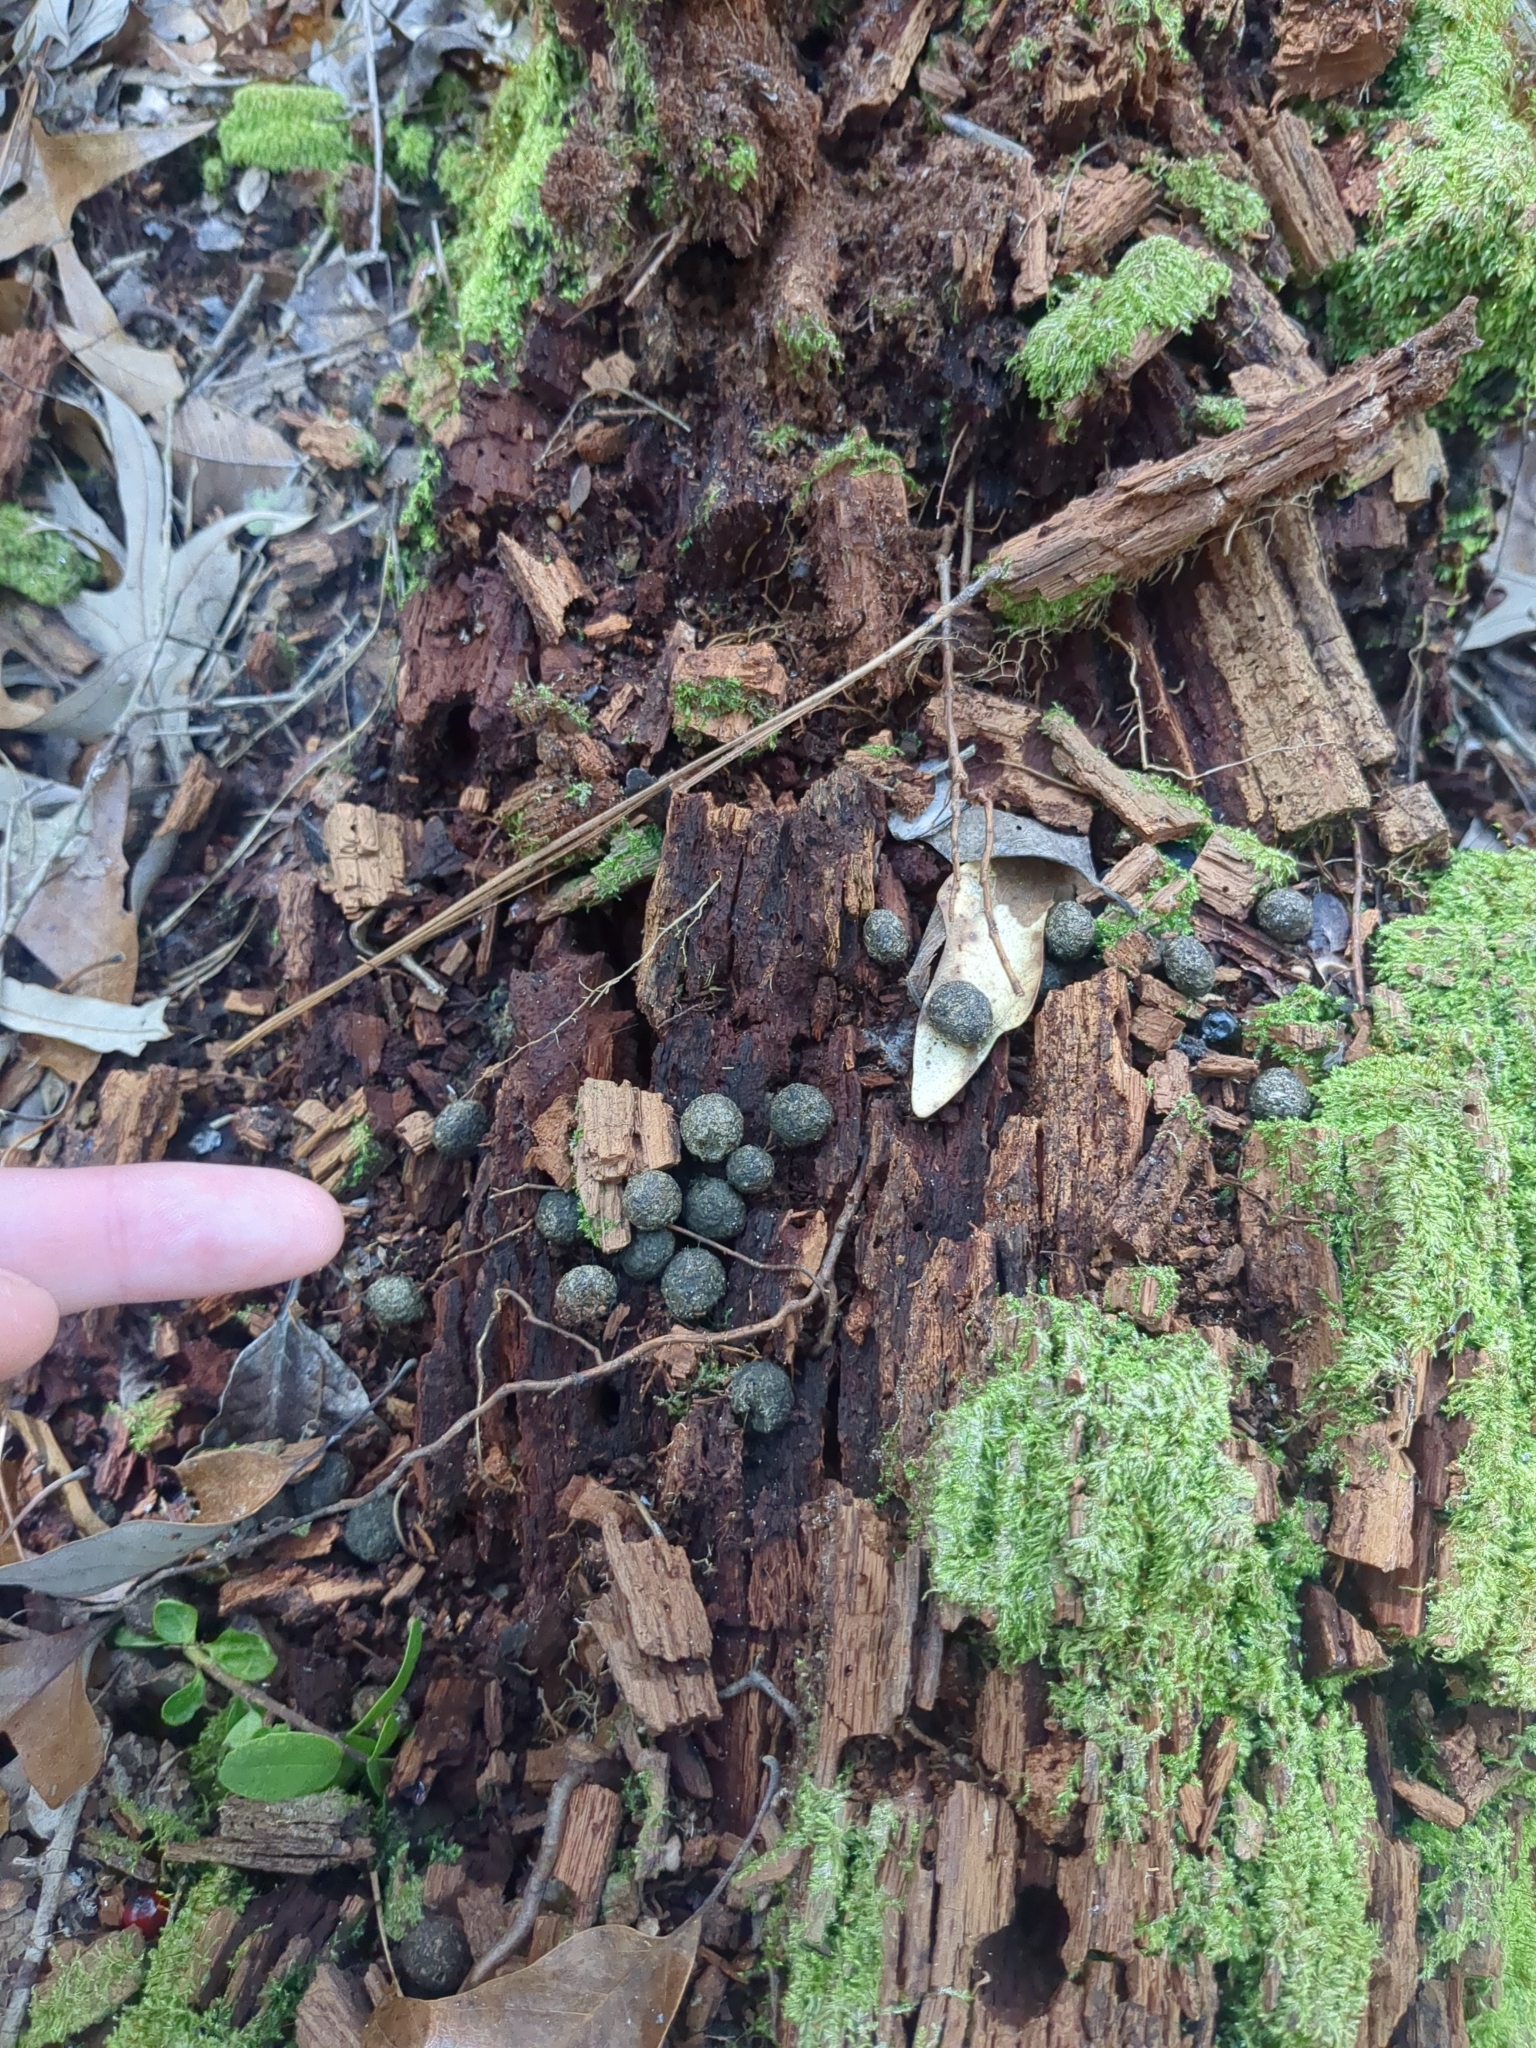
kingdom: Animalia
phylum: Chordata
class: Mammalia
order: Lagomorpha
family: Leporidae
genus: Sylvilagus
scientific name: Sylvilagus aquaticus
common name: Swamp rabbit
